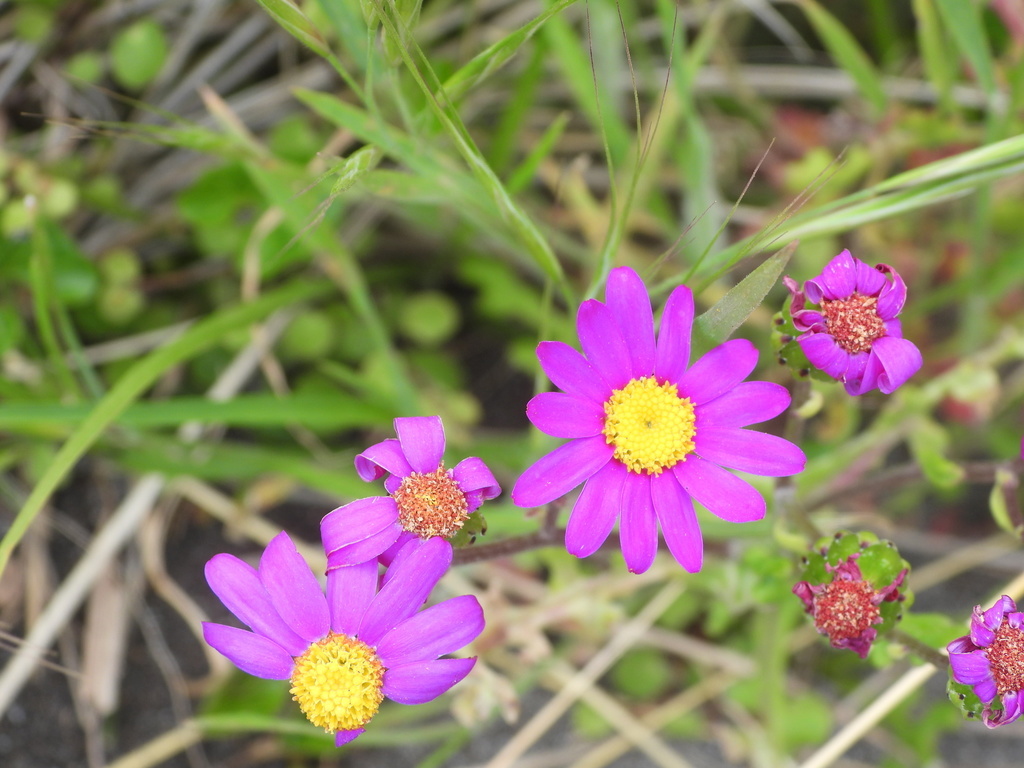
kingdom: Plantae
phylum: Tracheophyta
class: Magnoliopsida
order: Asterales
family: Asteraceae
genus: Senecio
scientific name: Senecio elegans
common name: Purple groundsel
